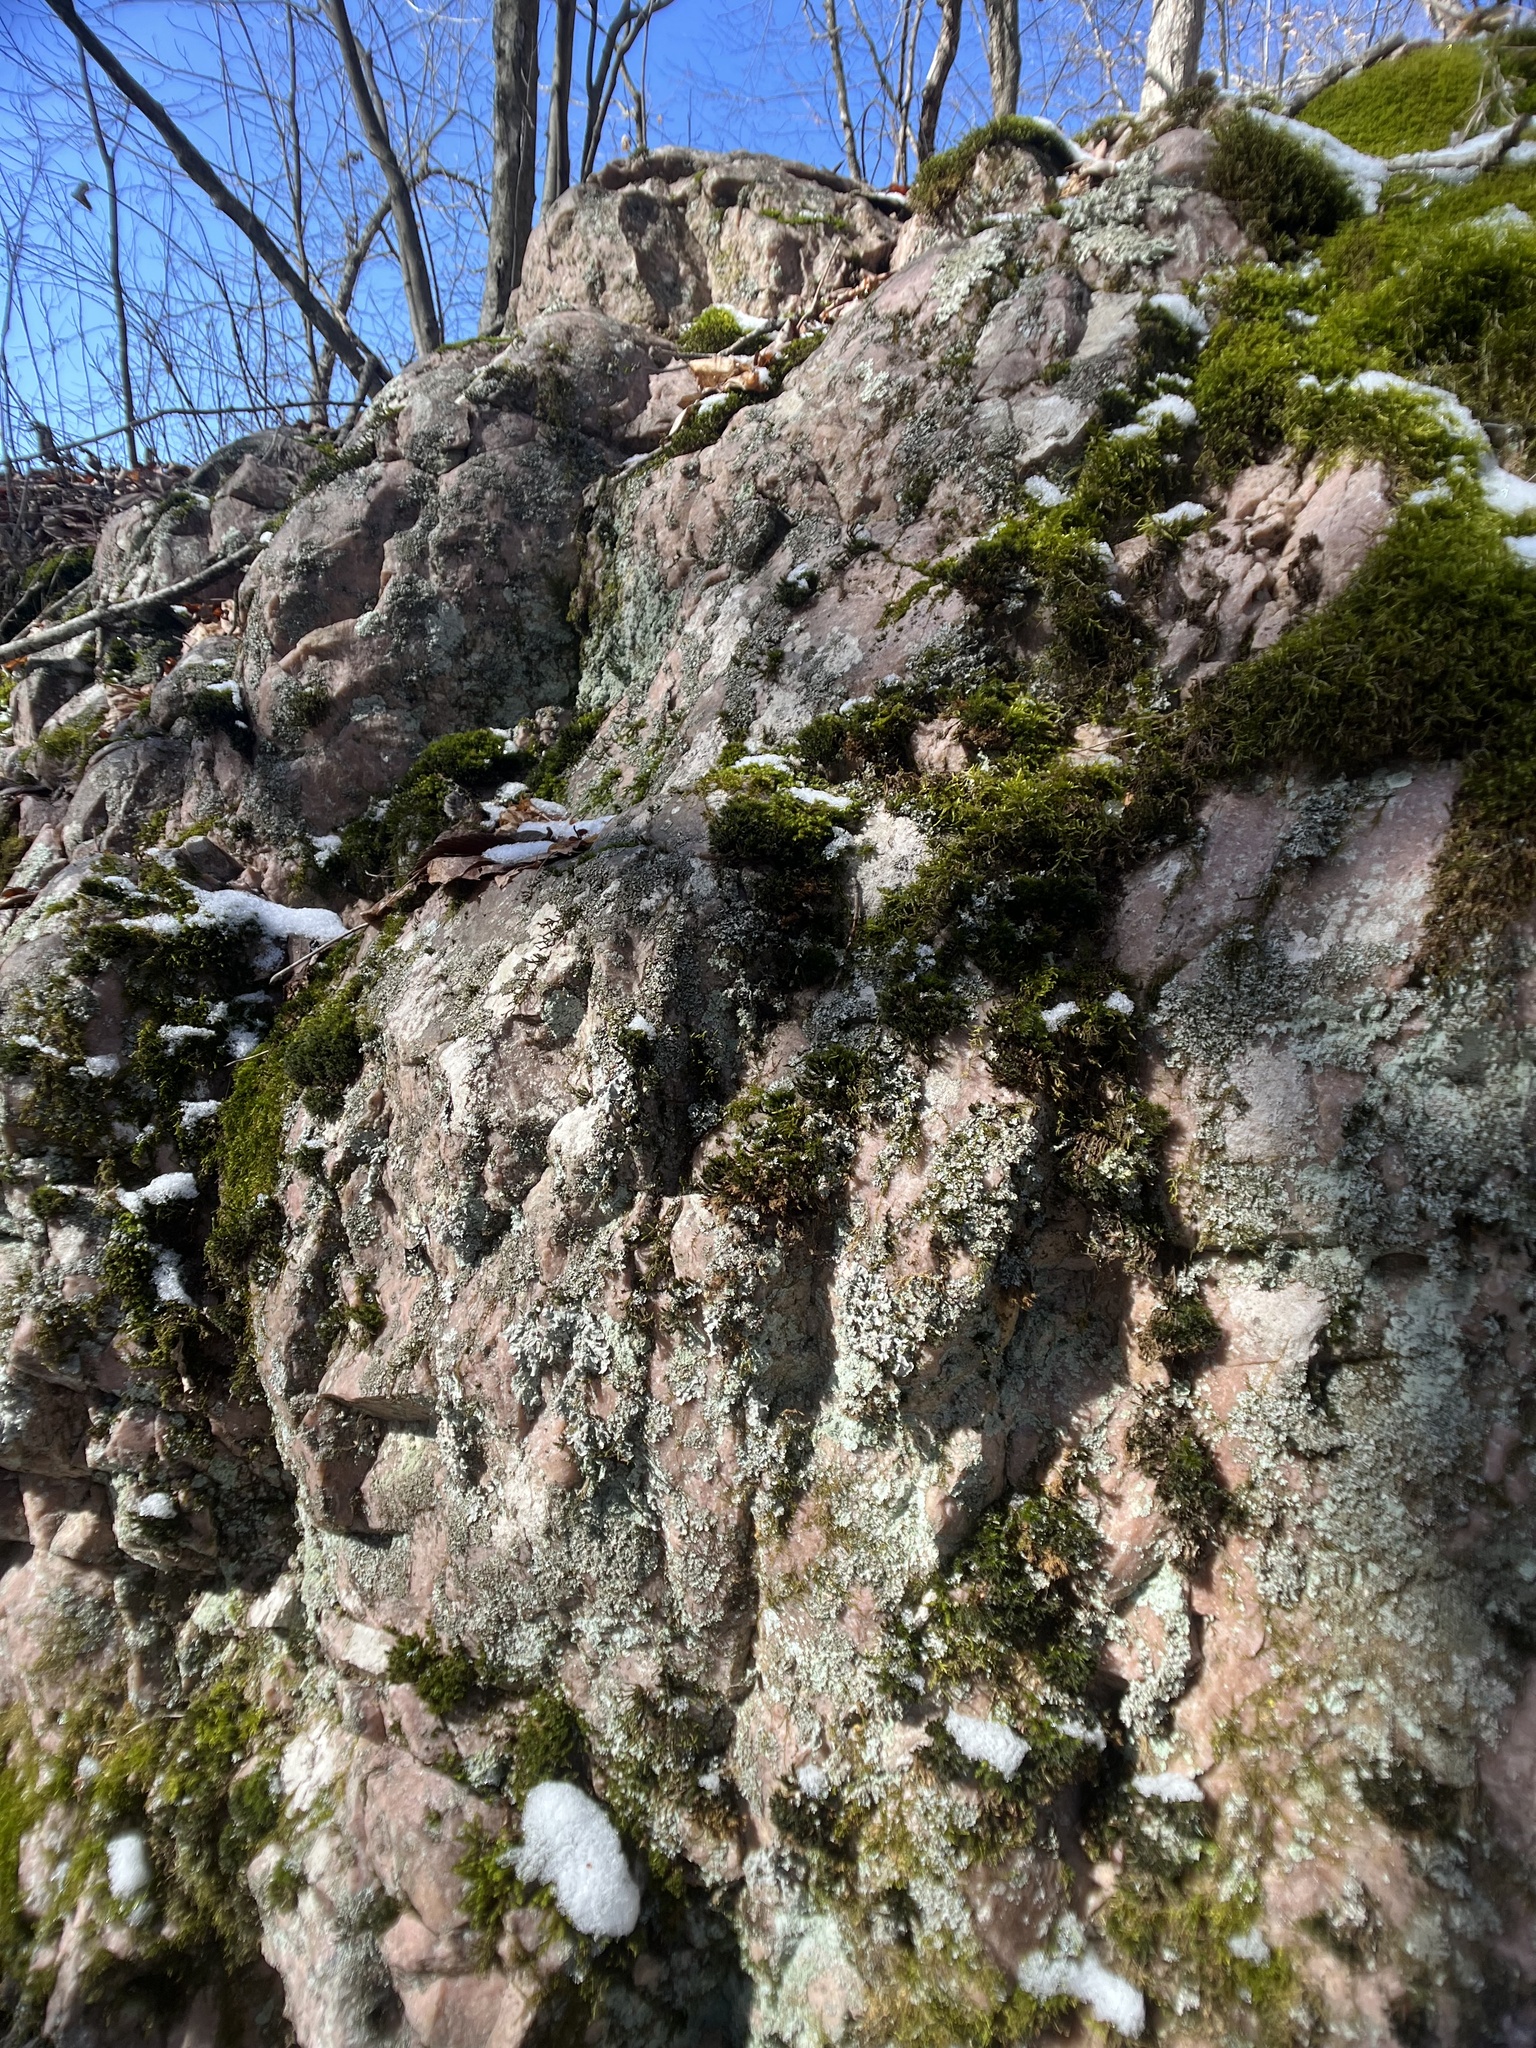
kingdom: Fungi
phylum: Ascomycota
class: Lecanoromycetes
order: Lecanorales
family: Parmeliaceae
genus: Myelochroa
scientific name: Myelochroa aurulenta
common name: Powdery axil-bristle lichen
